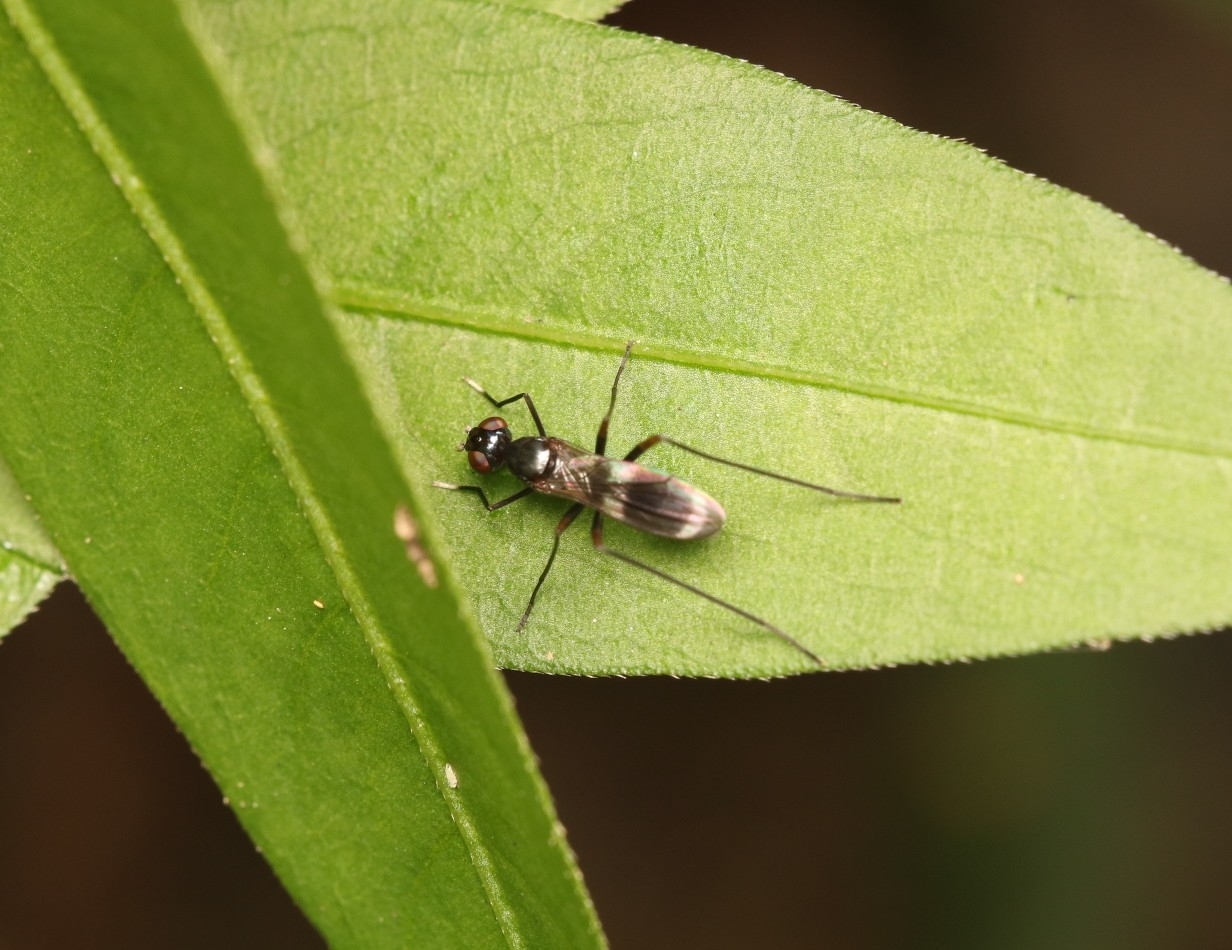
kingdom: Animalia
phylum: Arthropoda
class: Insecta
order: Diptera
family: Micropezidae
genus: Taeniaptera
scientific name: Taeniaptera trivittata
